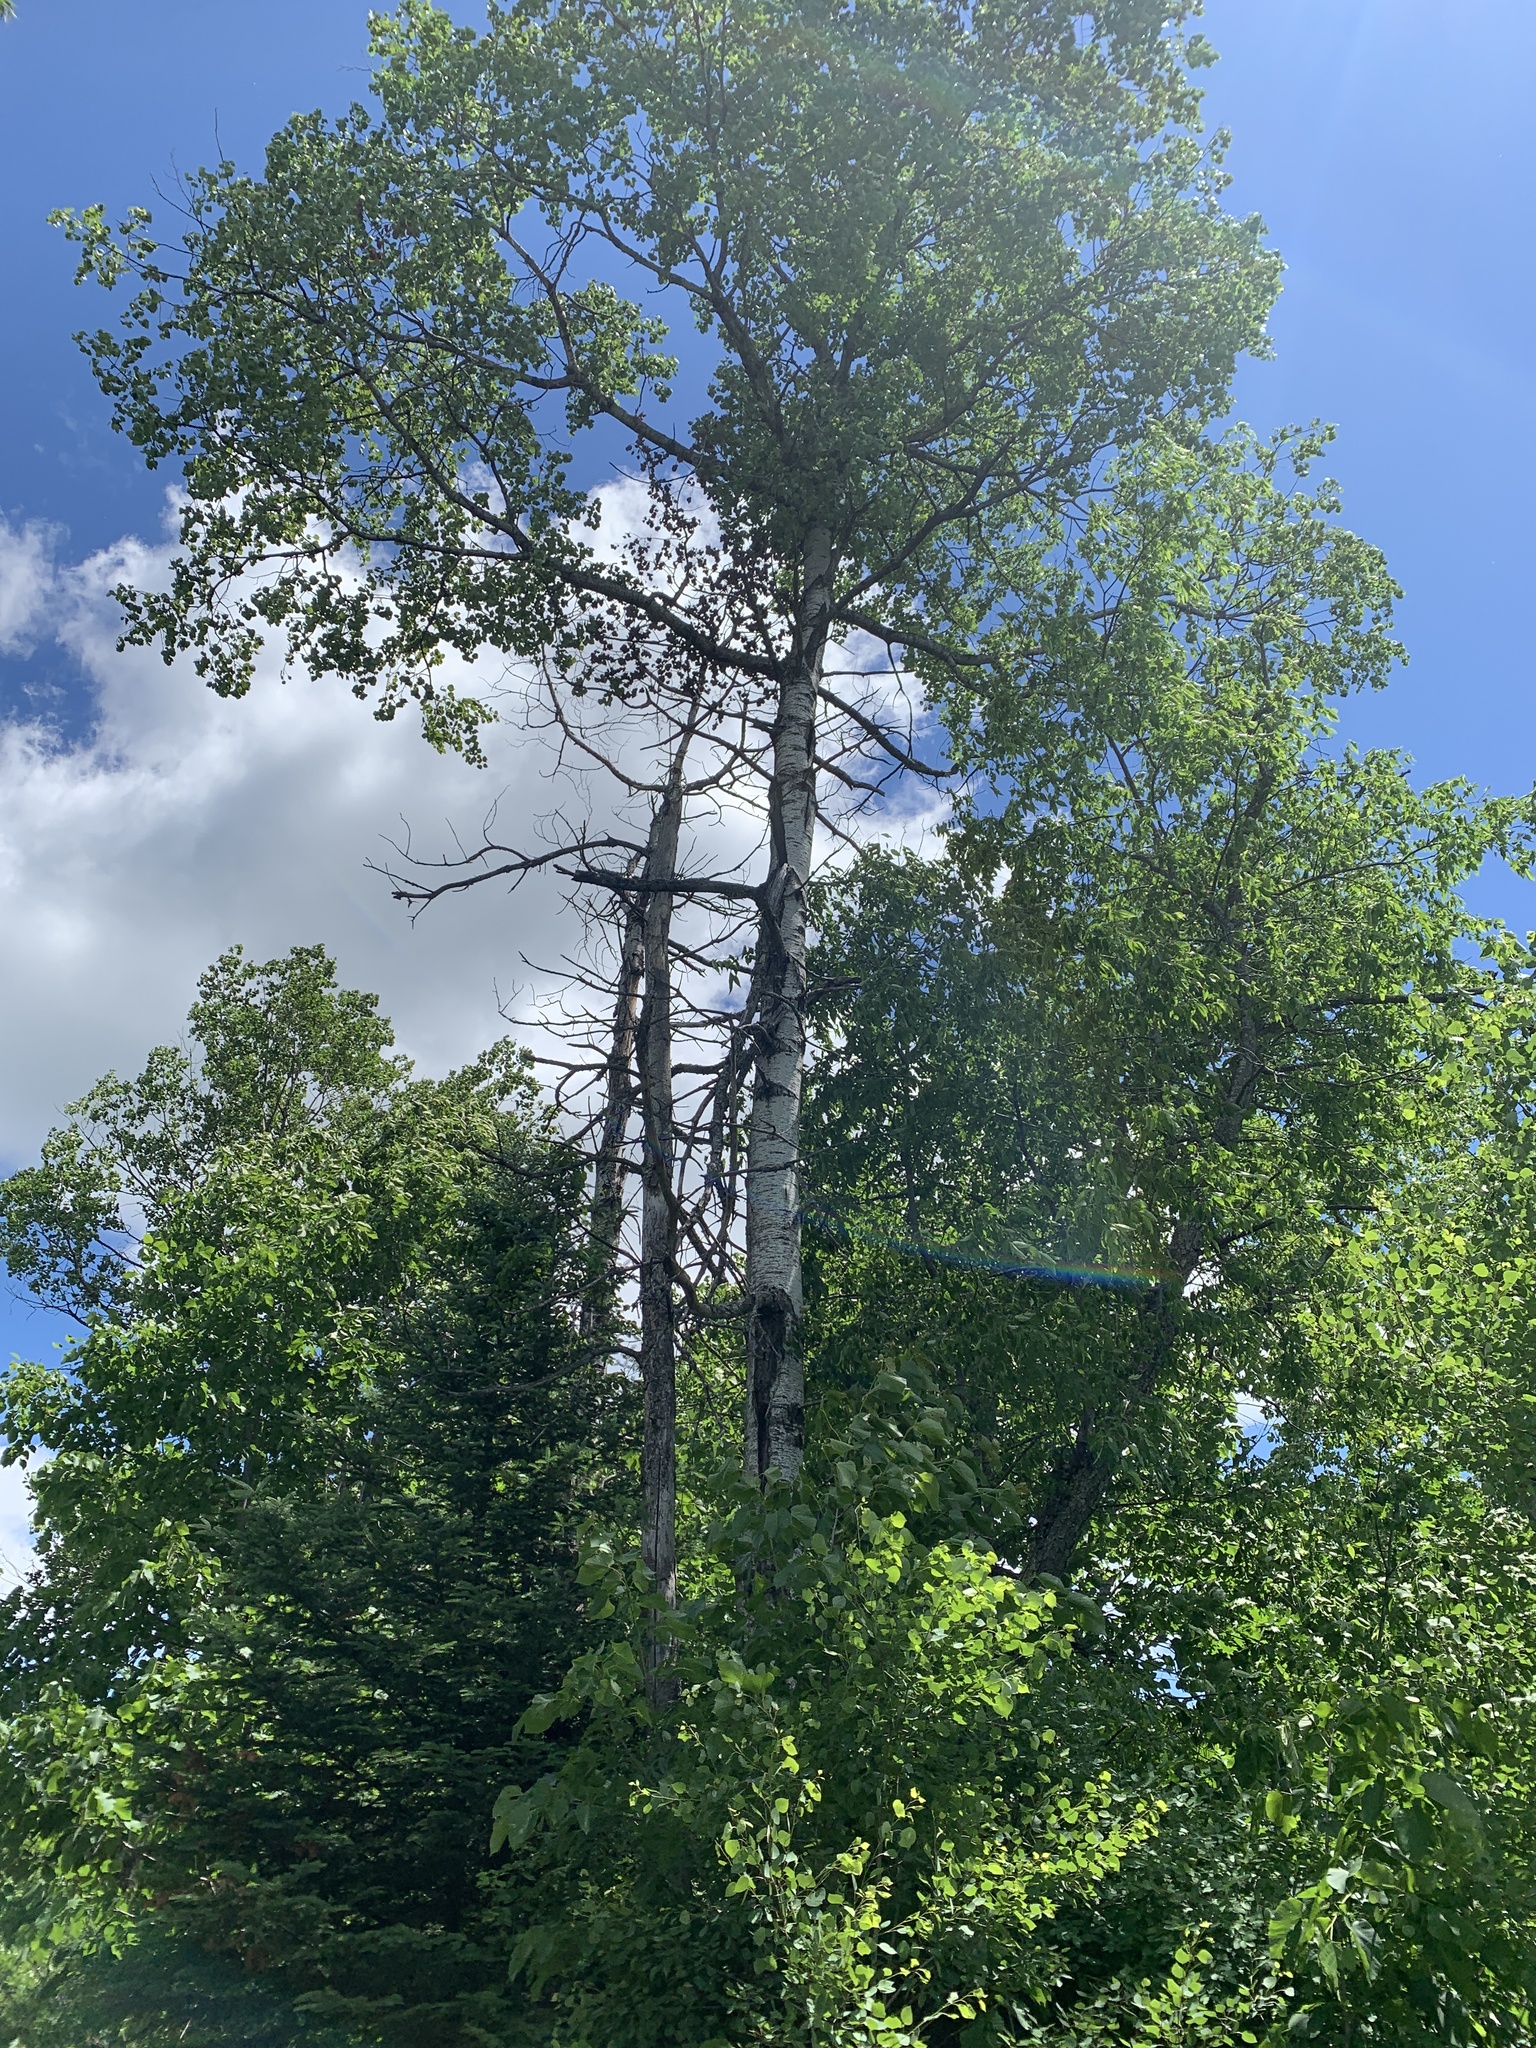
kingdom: Plantae
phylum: Tracheophyta
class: Magnoliopsida
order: Malpighiales
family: Salicaceae
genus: Populus
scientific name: Populus tremuloides
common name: Quaking aspen
